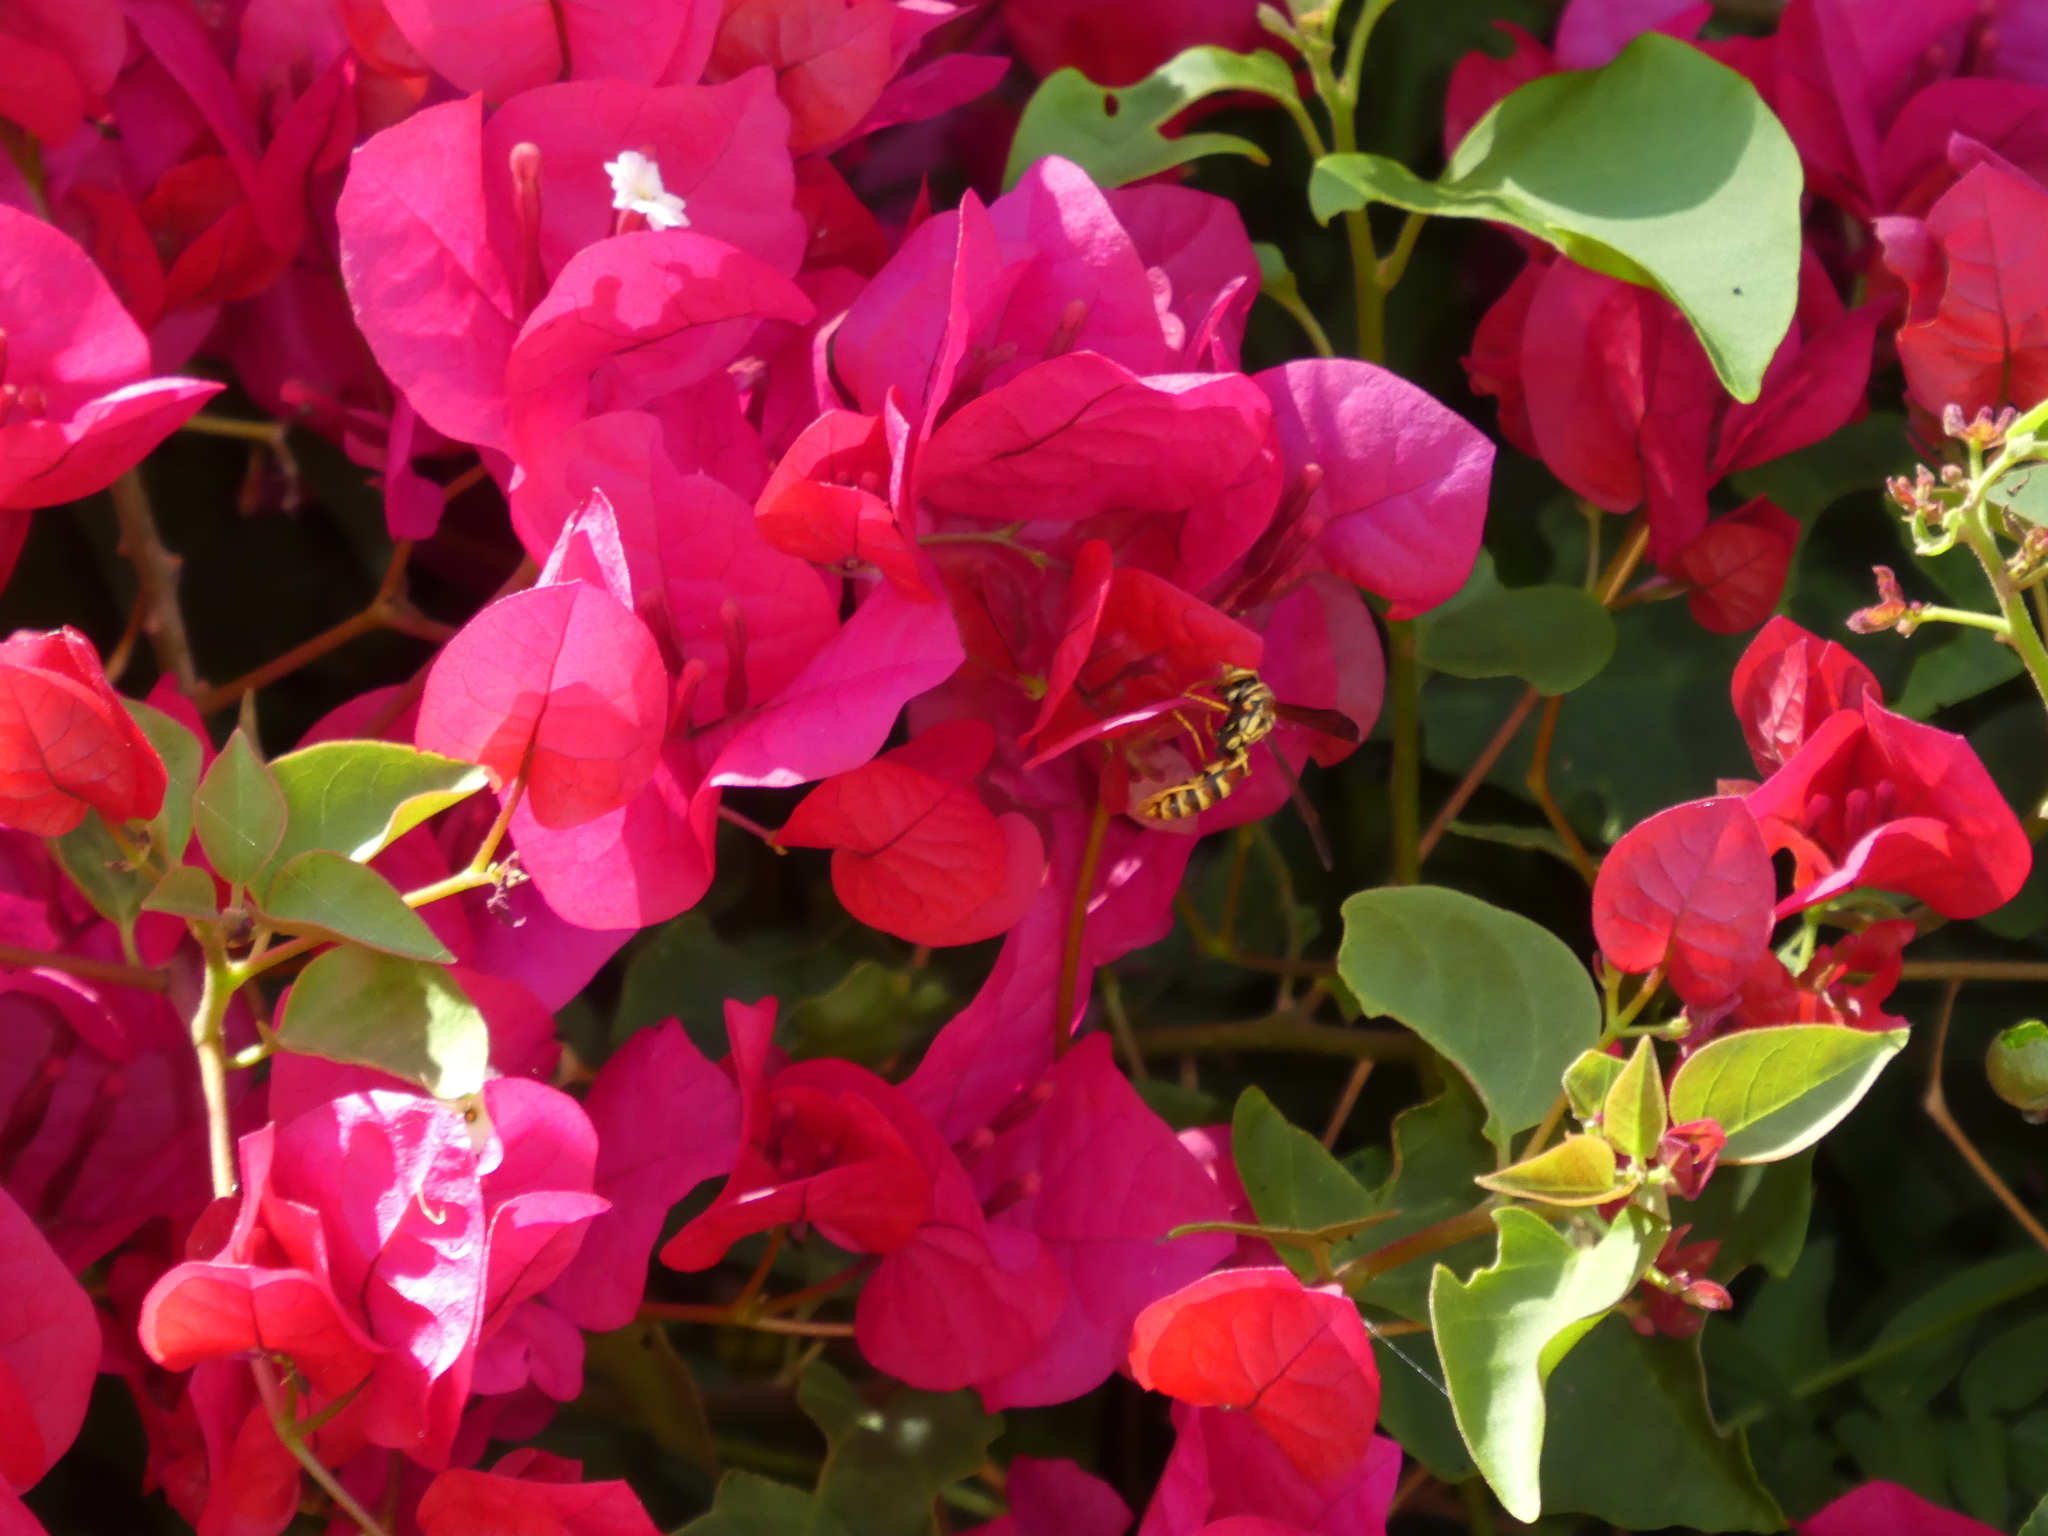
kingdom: Animalia
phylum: Arthropoda
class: Insecta
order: Hymenoptera
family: Eumenidae
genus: Polistes
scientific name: Polistes exclamans
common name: Paper wasp
